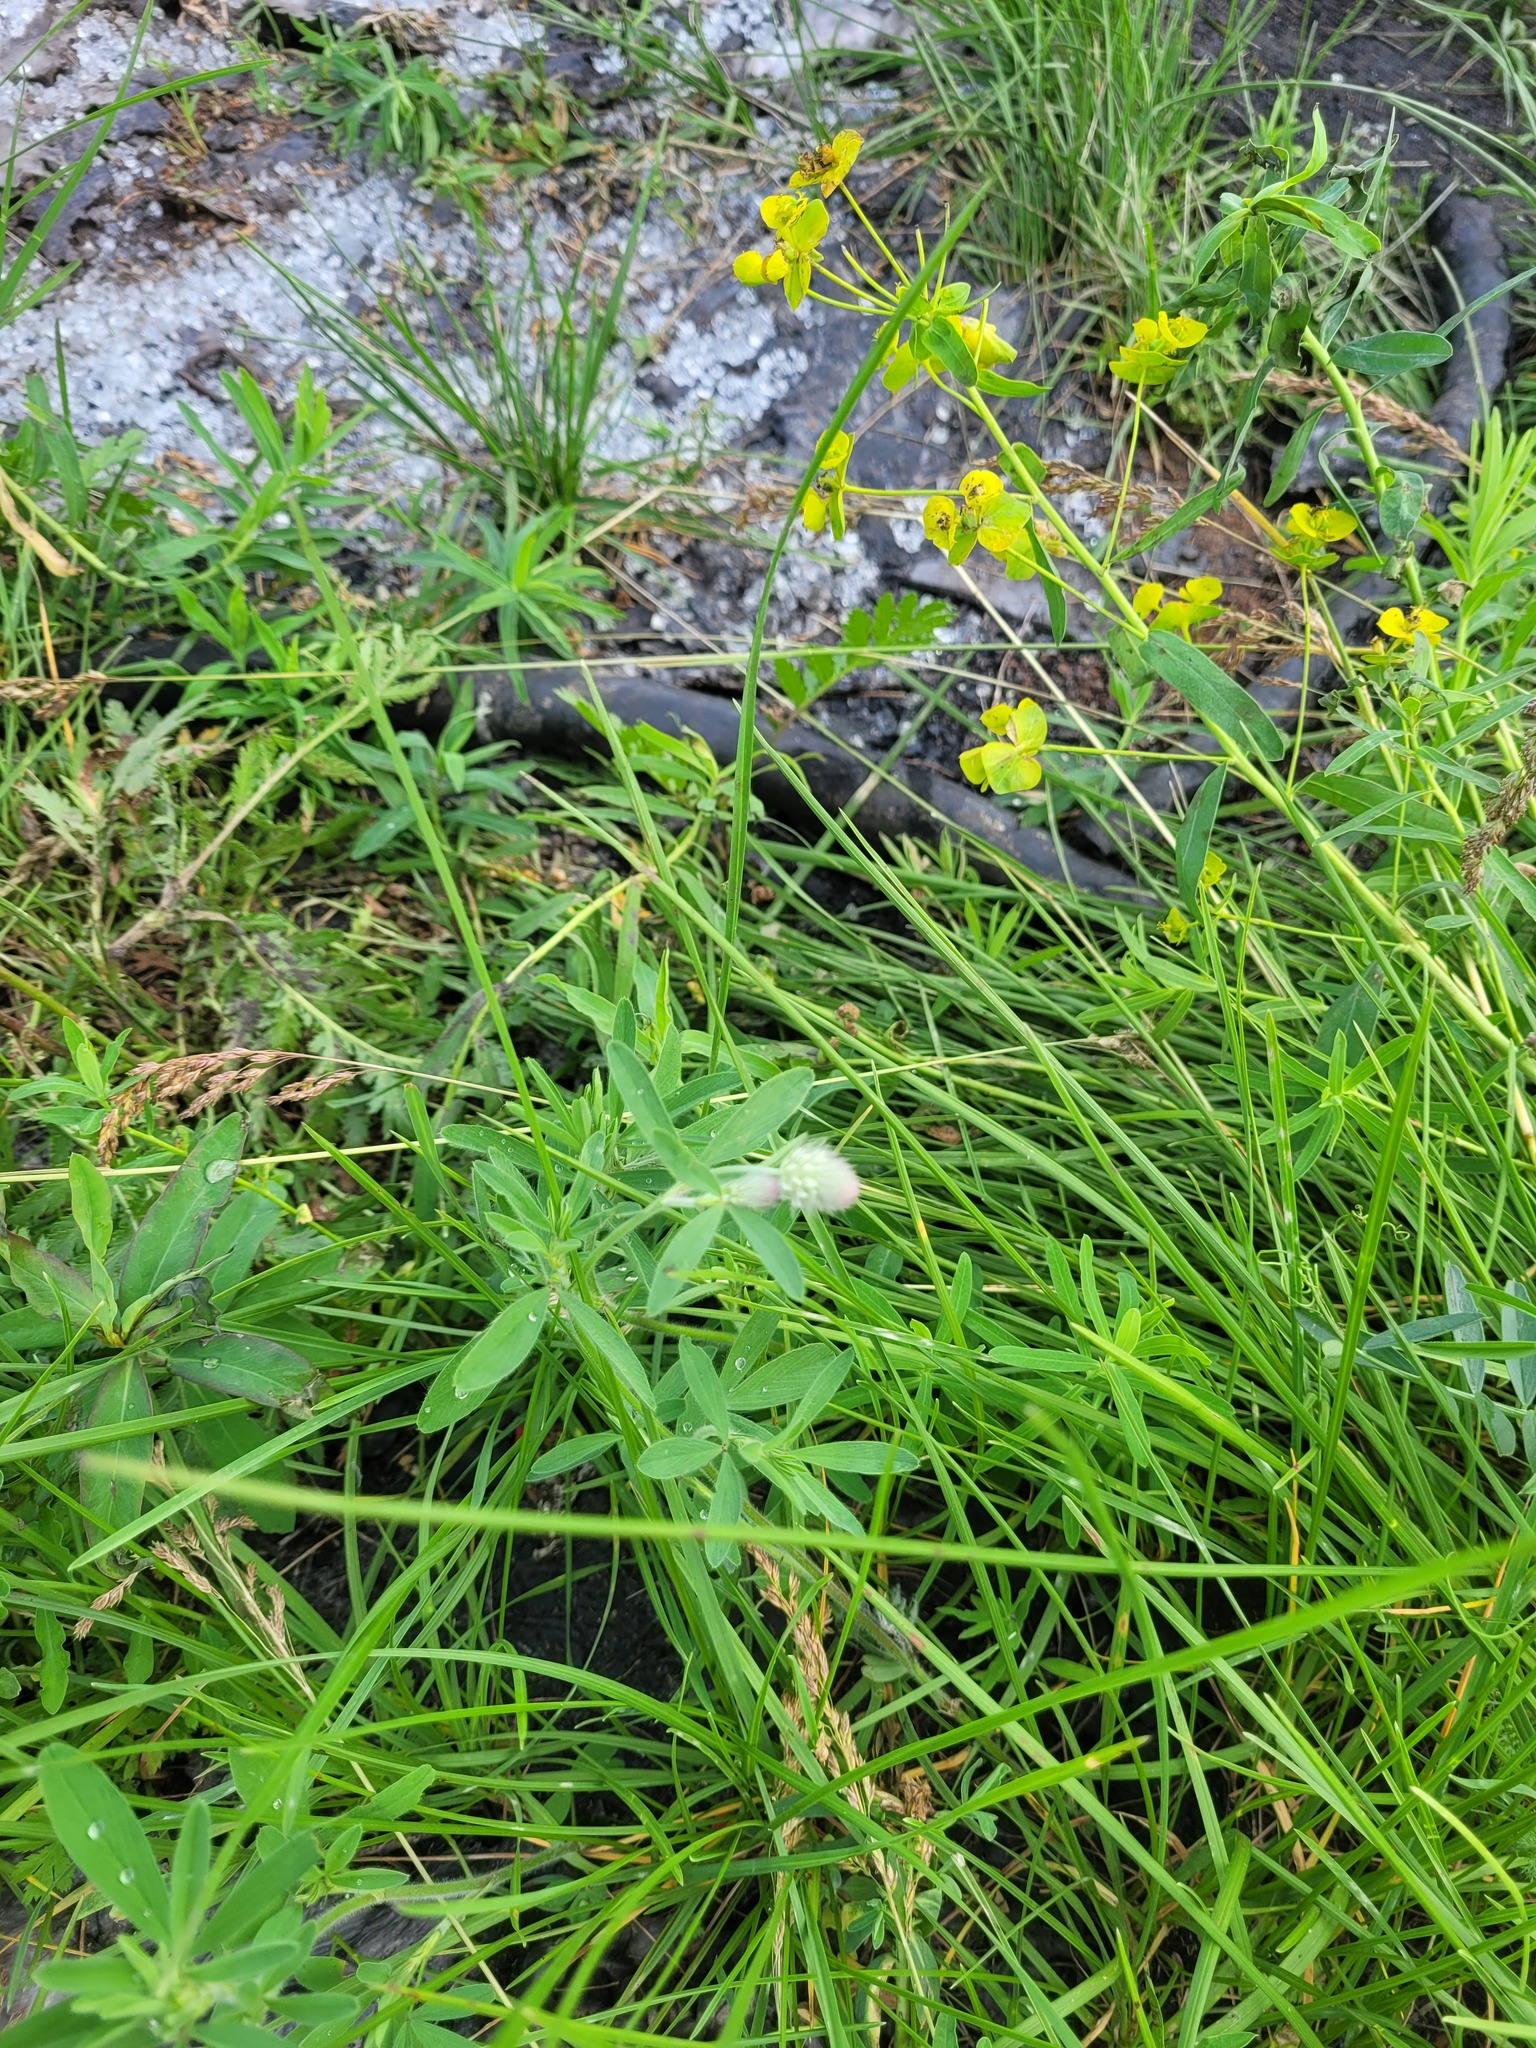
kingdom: Plantae
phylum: Tracheophyta
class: Magnoliopsida
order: Fabales
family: Fabaceae
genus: Trifolium
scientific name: Trifolium arvense
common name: Hare's-foot clover
